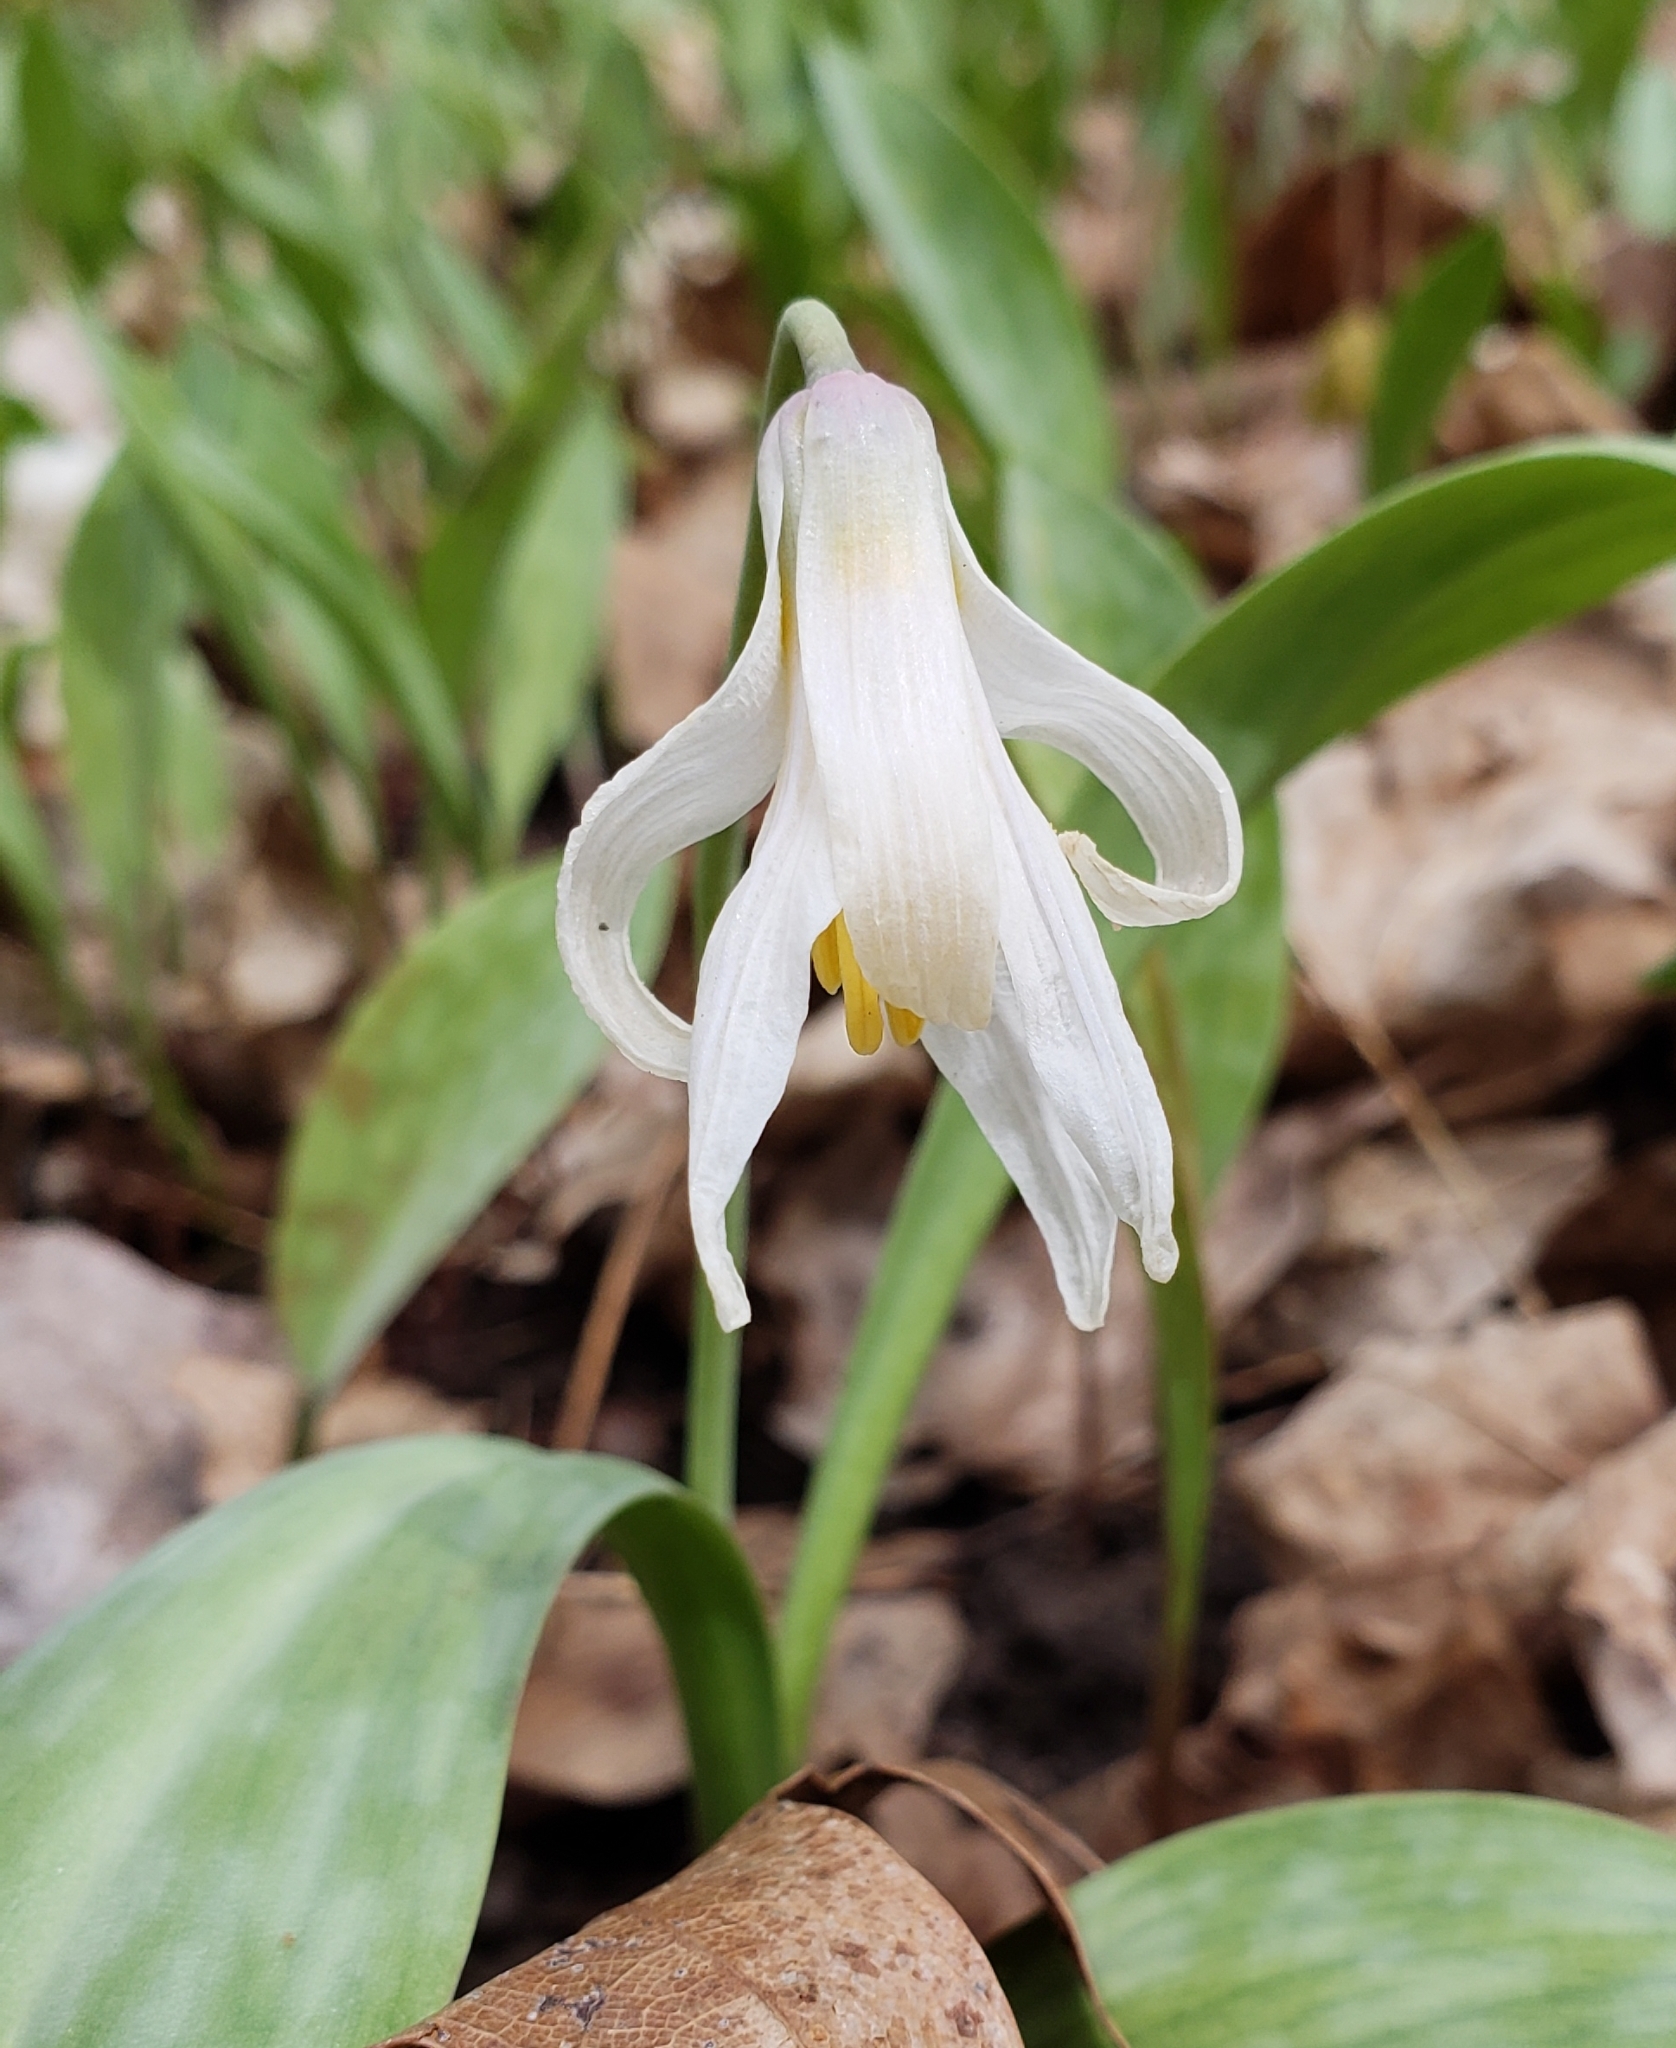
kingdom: Plantae
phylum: Tracheophyta
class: Liliopsida
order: Liliales
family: Liliaceae
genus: Erythronium
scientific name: Erythronium albidum
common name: White trout-lily
